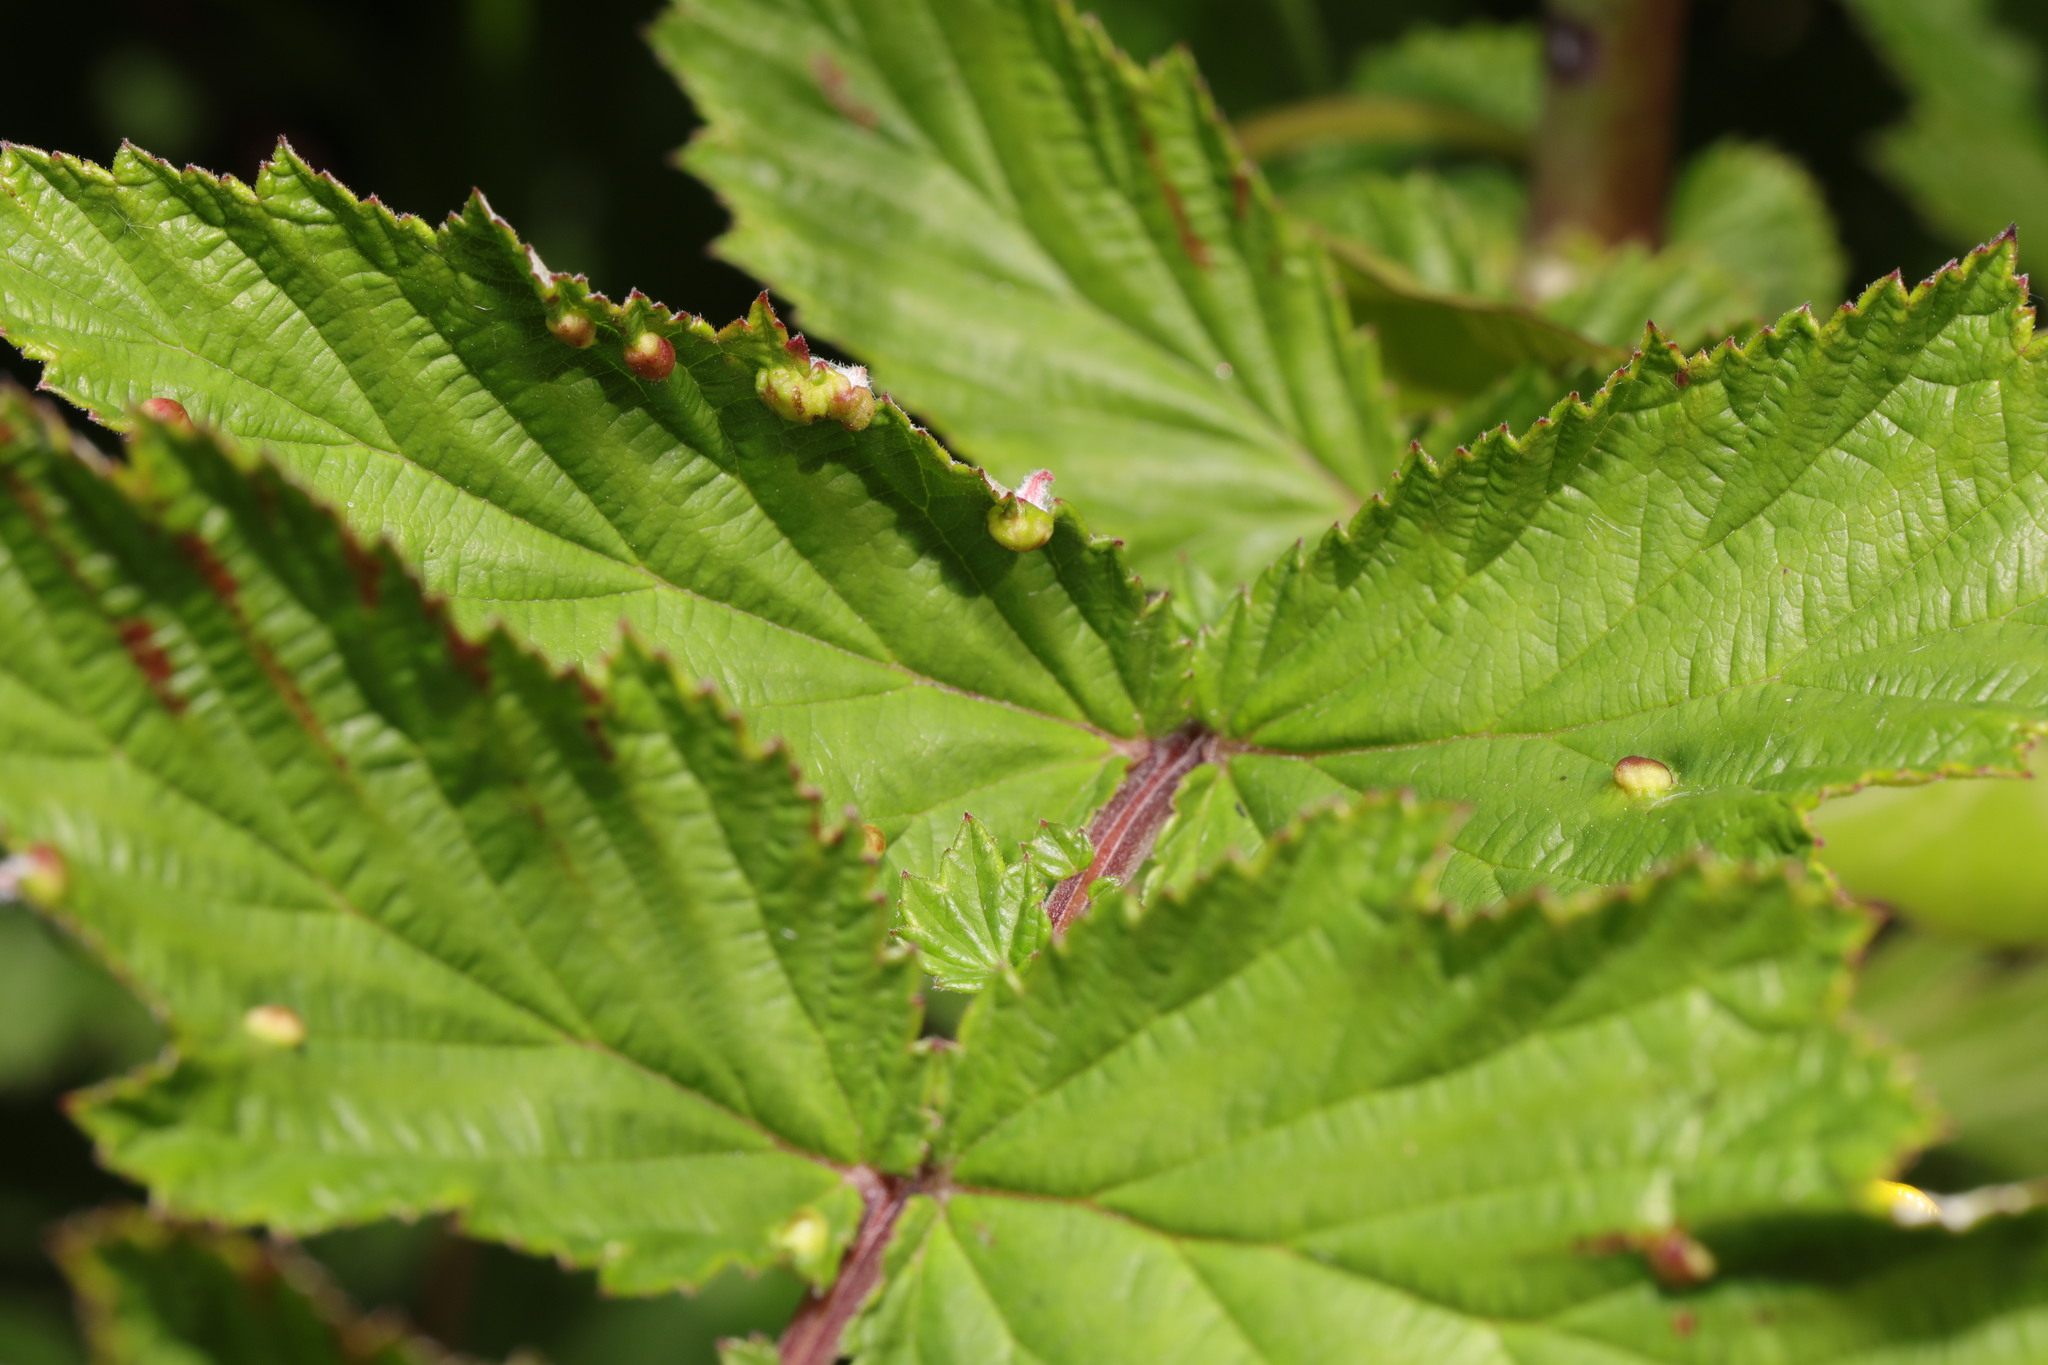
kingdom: Plantae
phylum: Tracheophyta
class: Magnoliopsida
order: Rosales
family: Rosaceae
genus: Filipendula
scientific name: Filipendula ulmaria
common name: Meadowsweet
